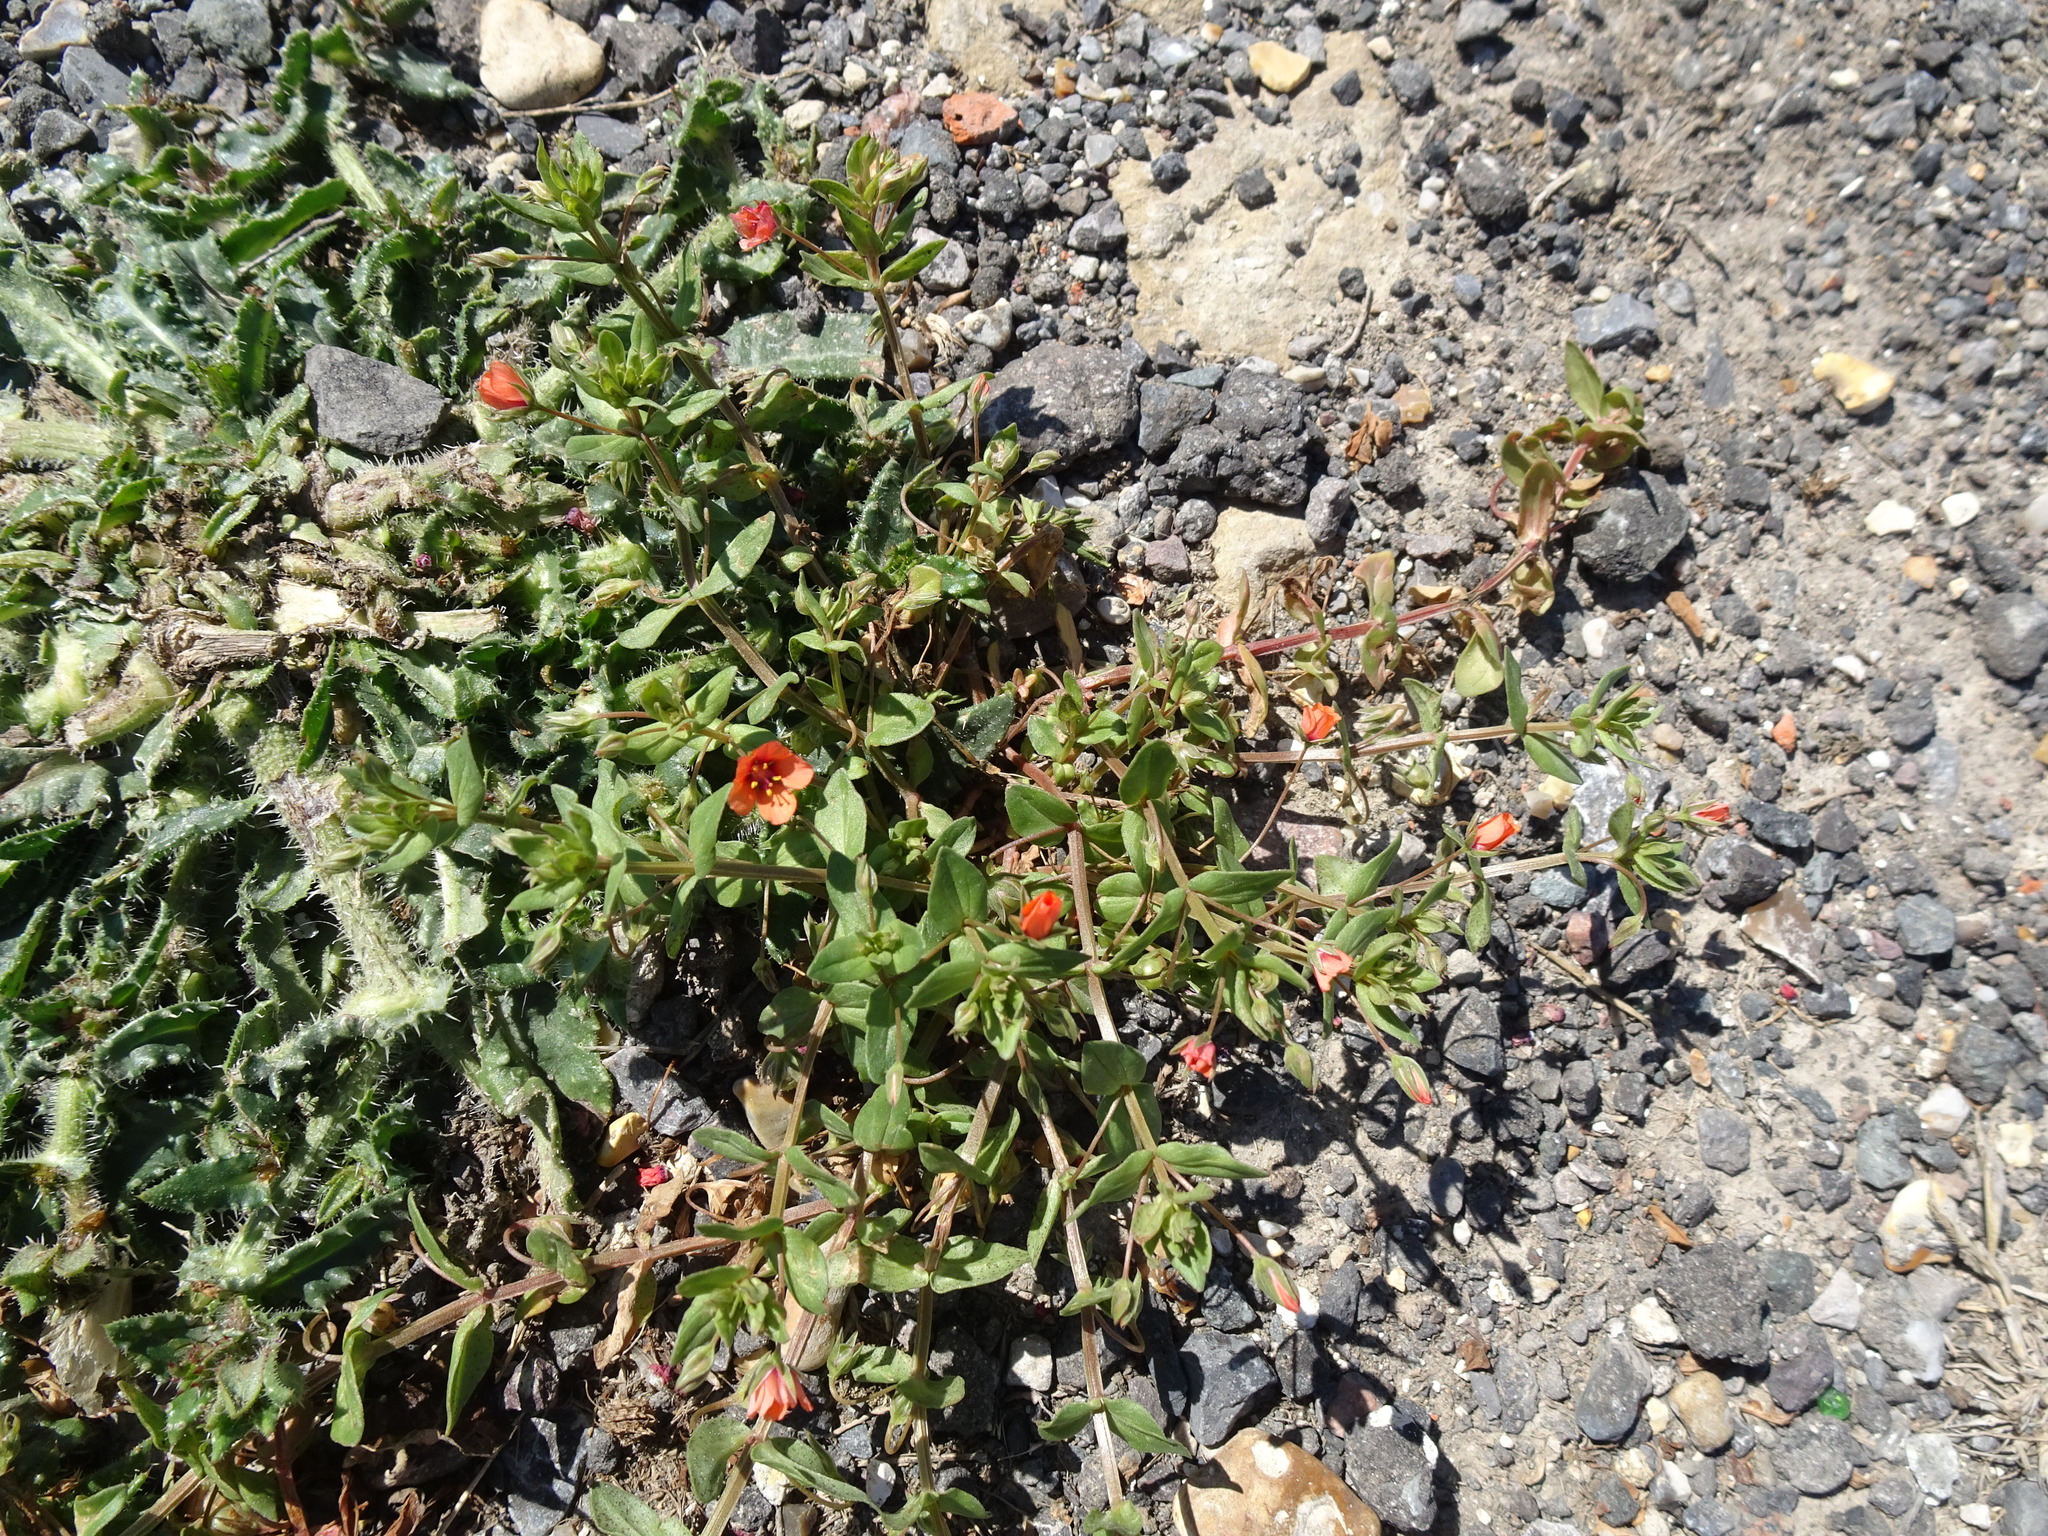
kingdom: Plantae
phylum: Tracheophyta
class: Magnoliopsida
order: Ericales
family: Primulaceae
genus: Lysimachia
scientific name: Lysimachia arvensis
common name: Scarlet pimpernel
